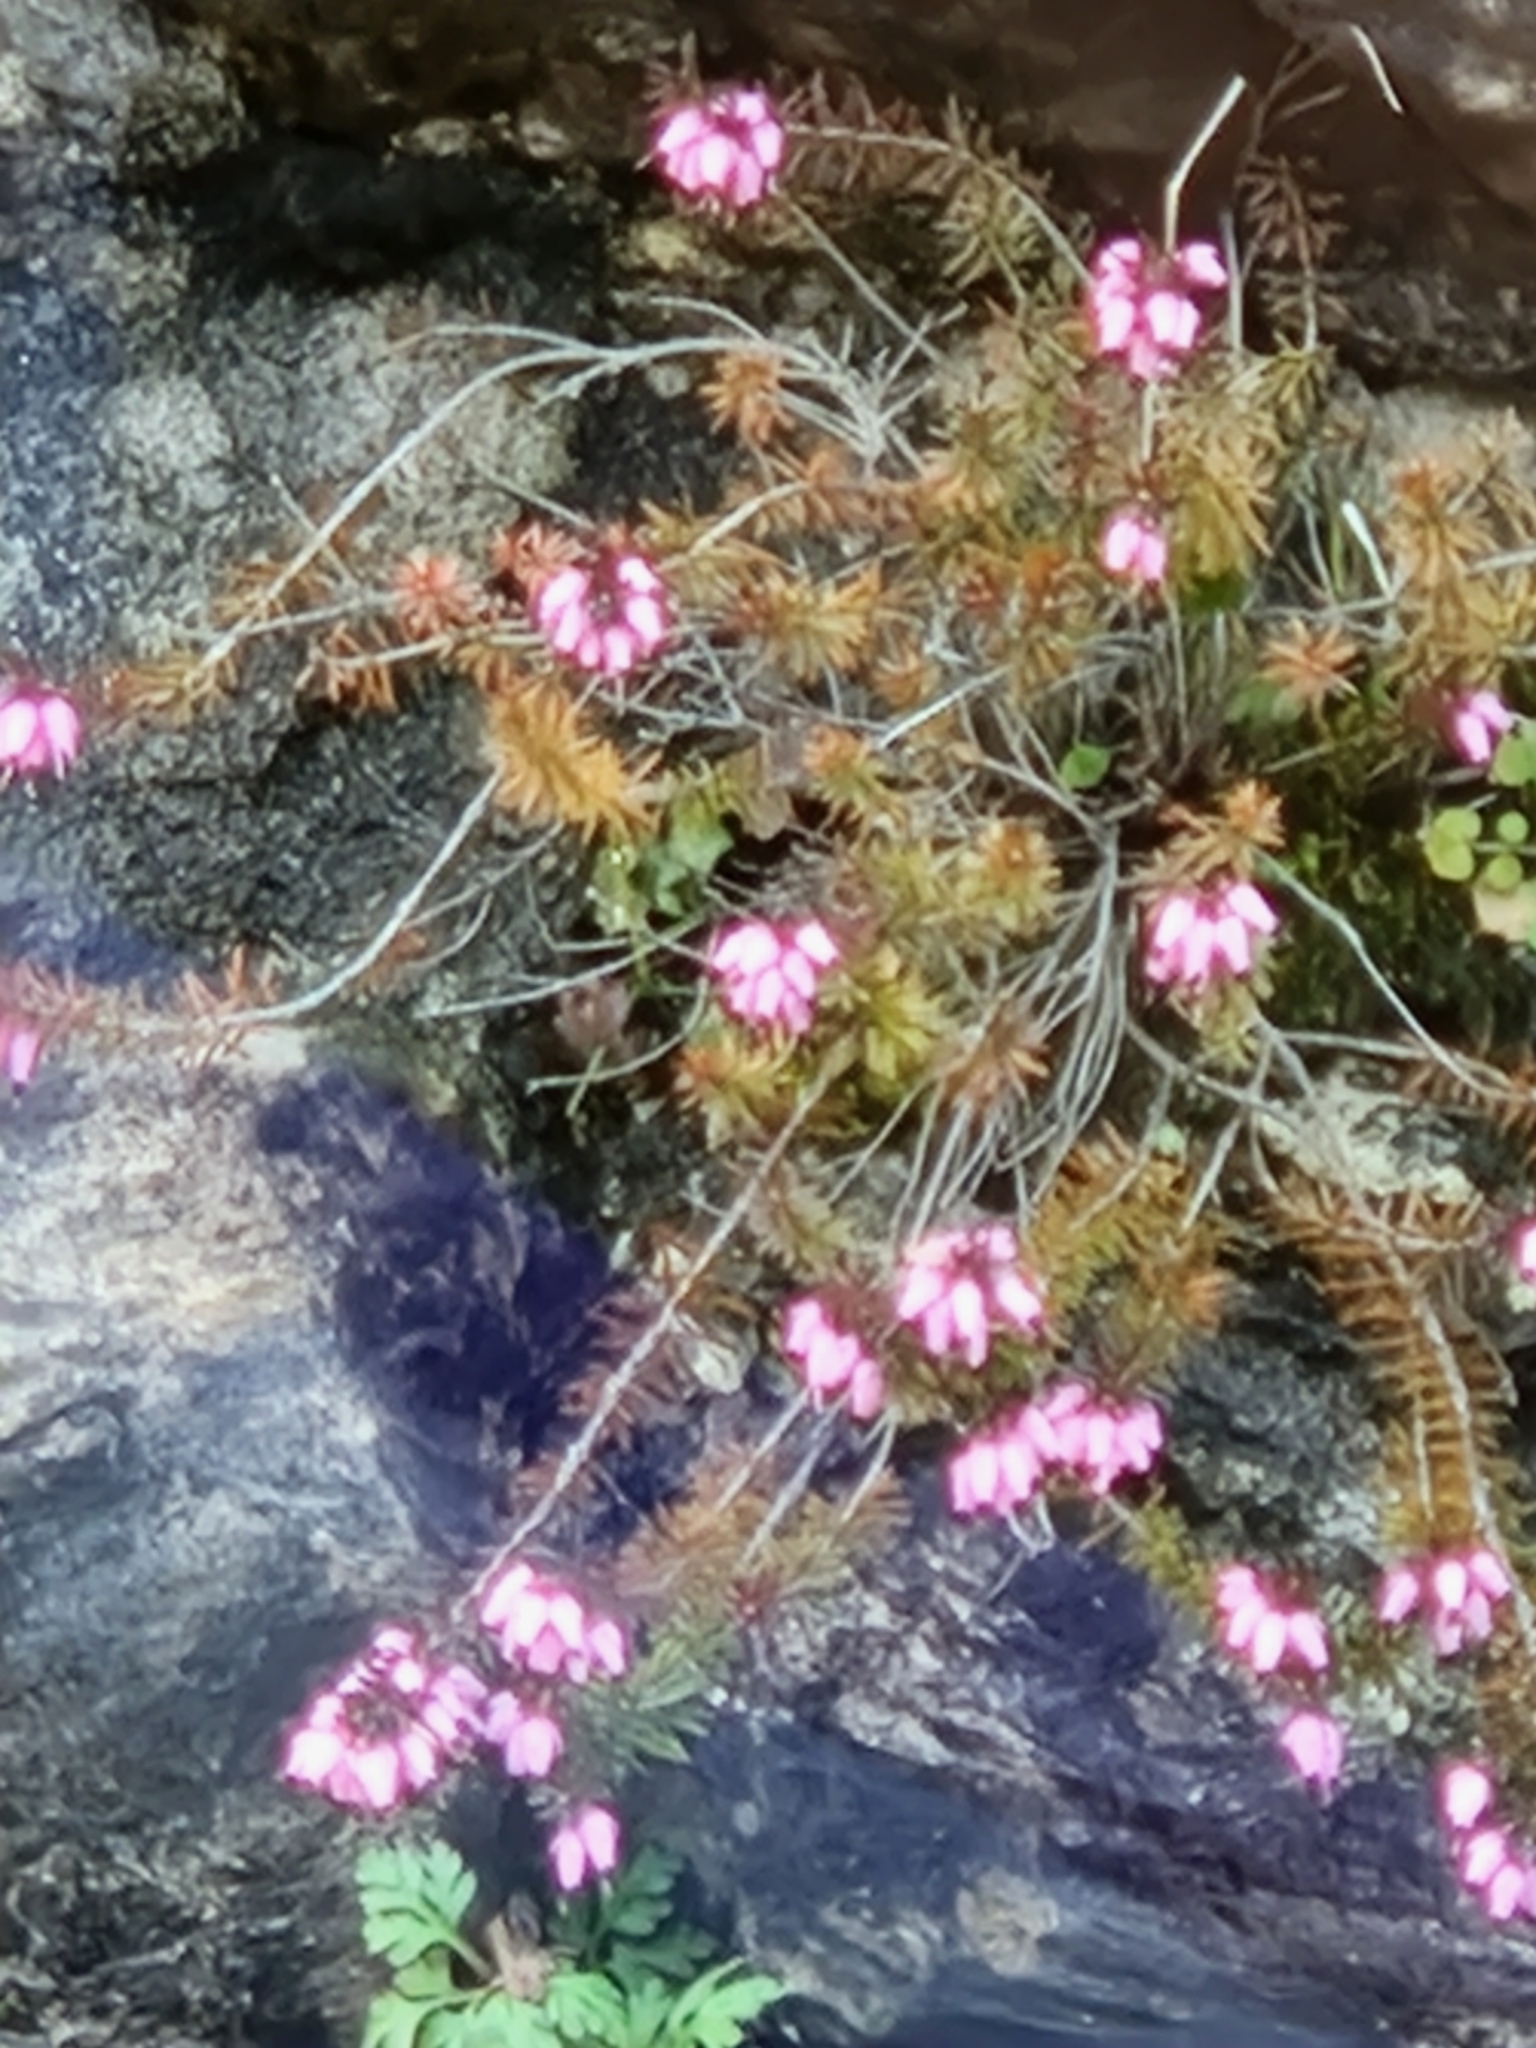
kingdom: Plantae
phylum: Tracheophyta
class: Magnoliopsida
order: Ericales
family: Ericaceae
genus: Erica
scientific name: Erica carnea
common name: Winter heath
